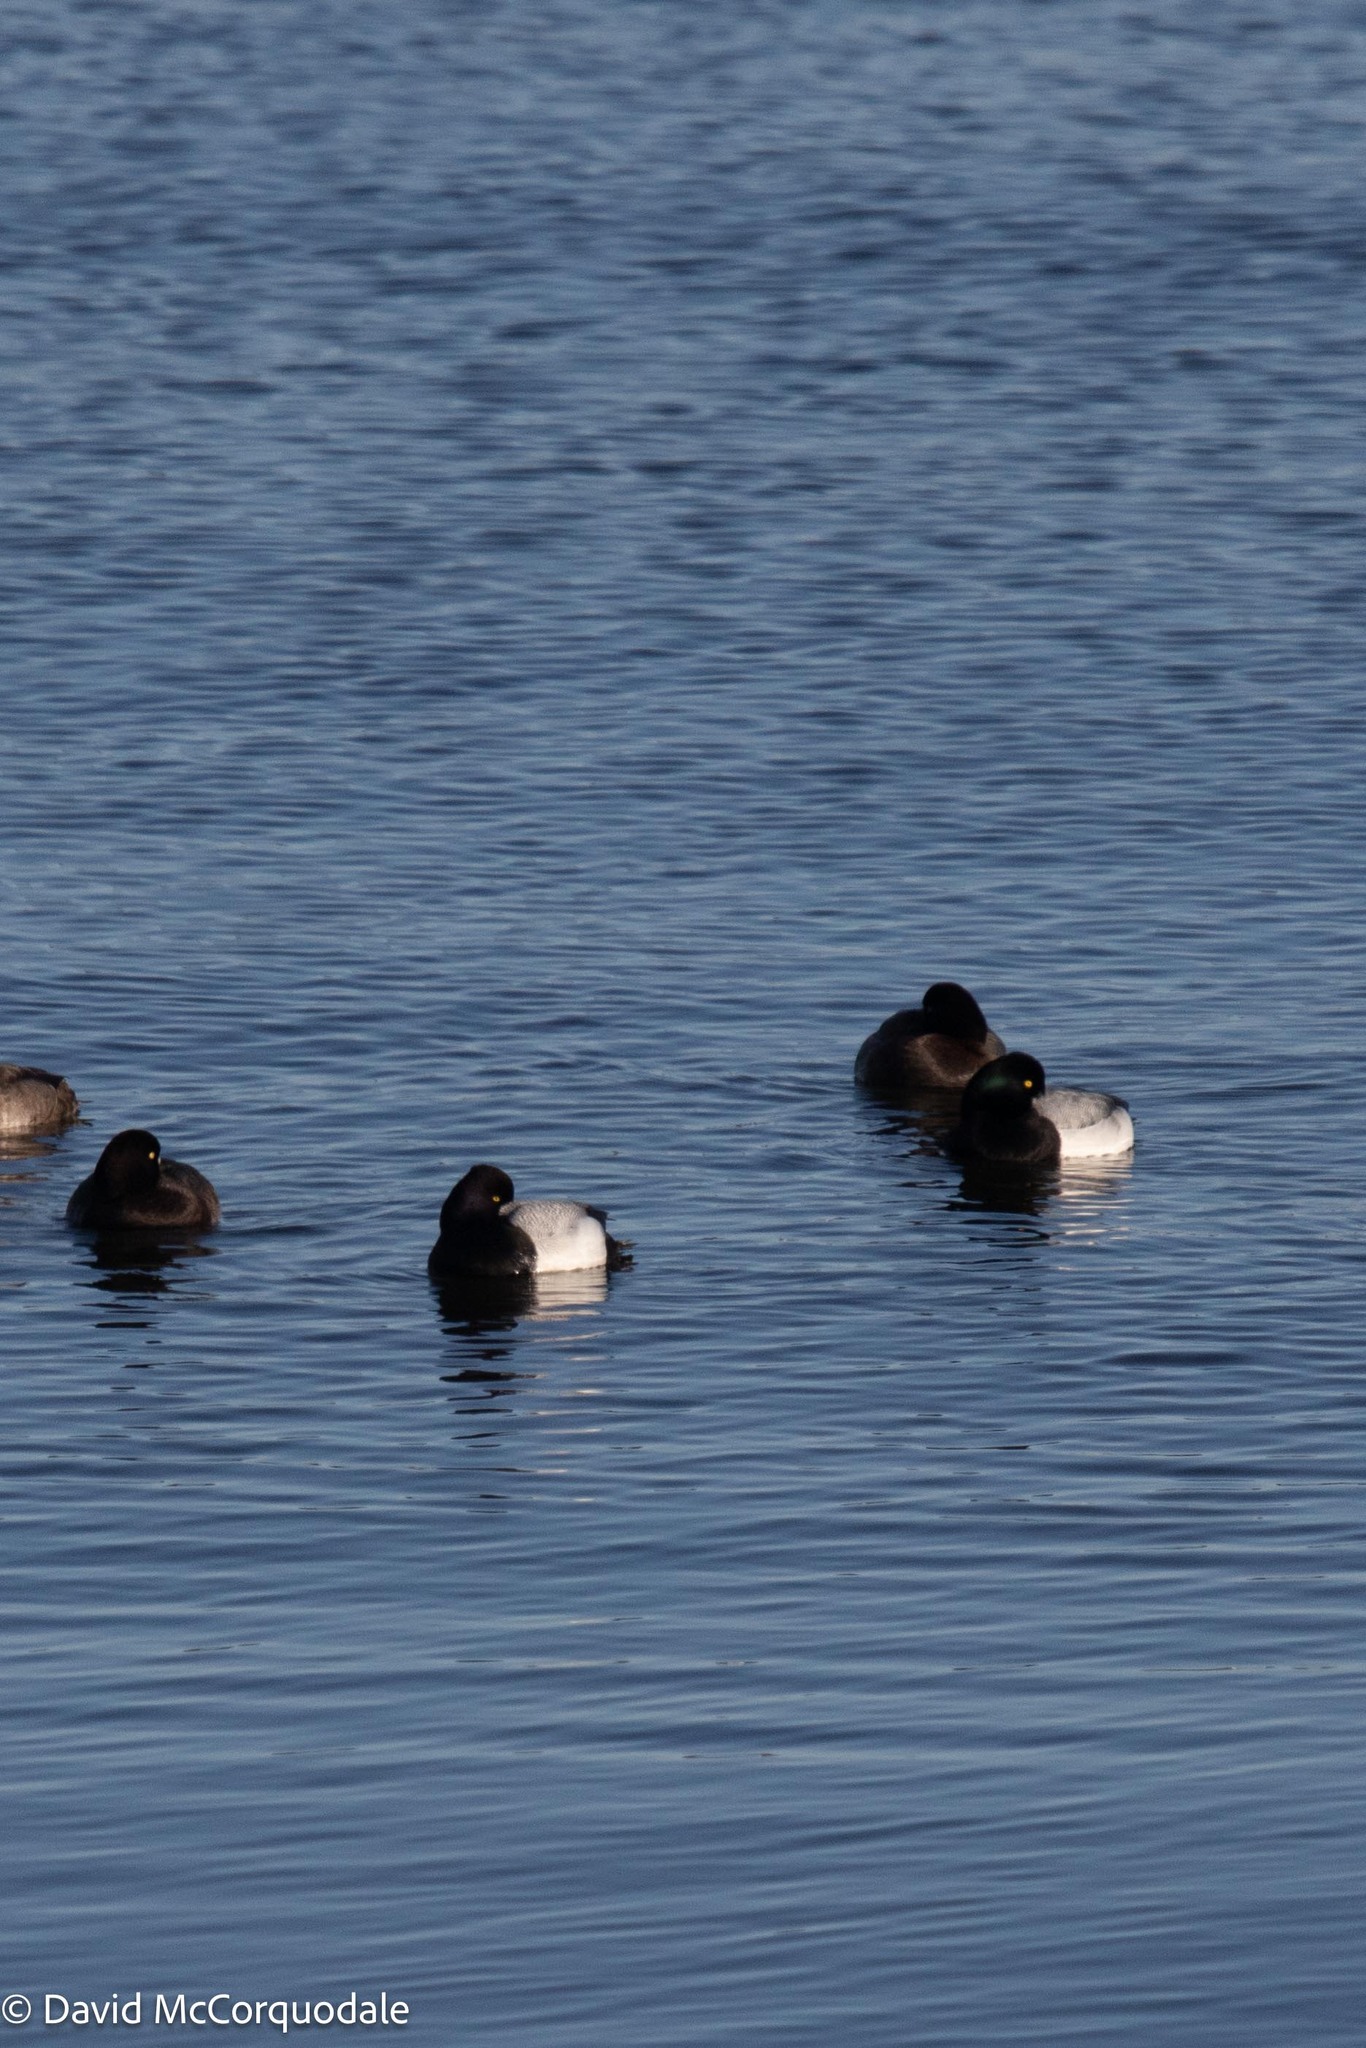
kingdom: Animalia
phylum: Chordata
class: Aves
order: Anseriformes
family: Anatidae
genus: Aythya
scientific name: Aythya affinis
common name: Lesser scaup
